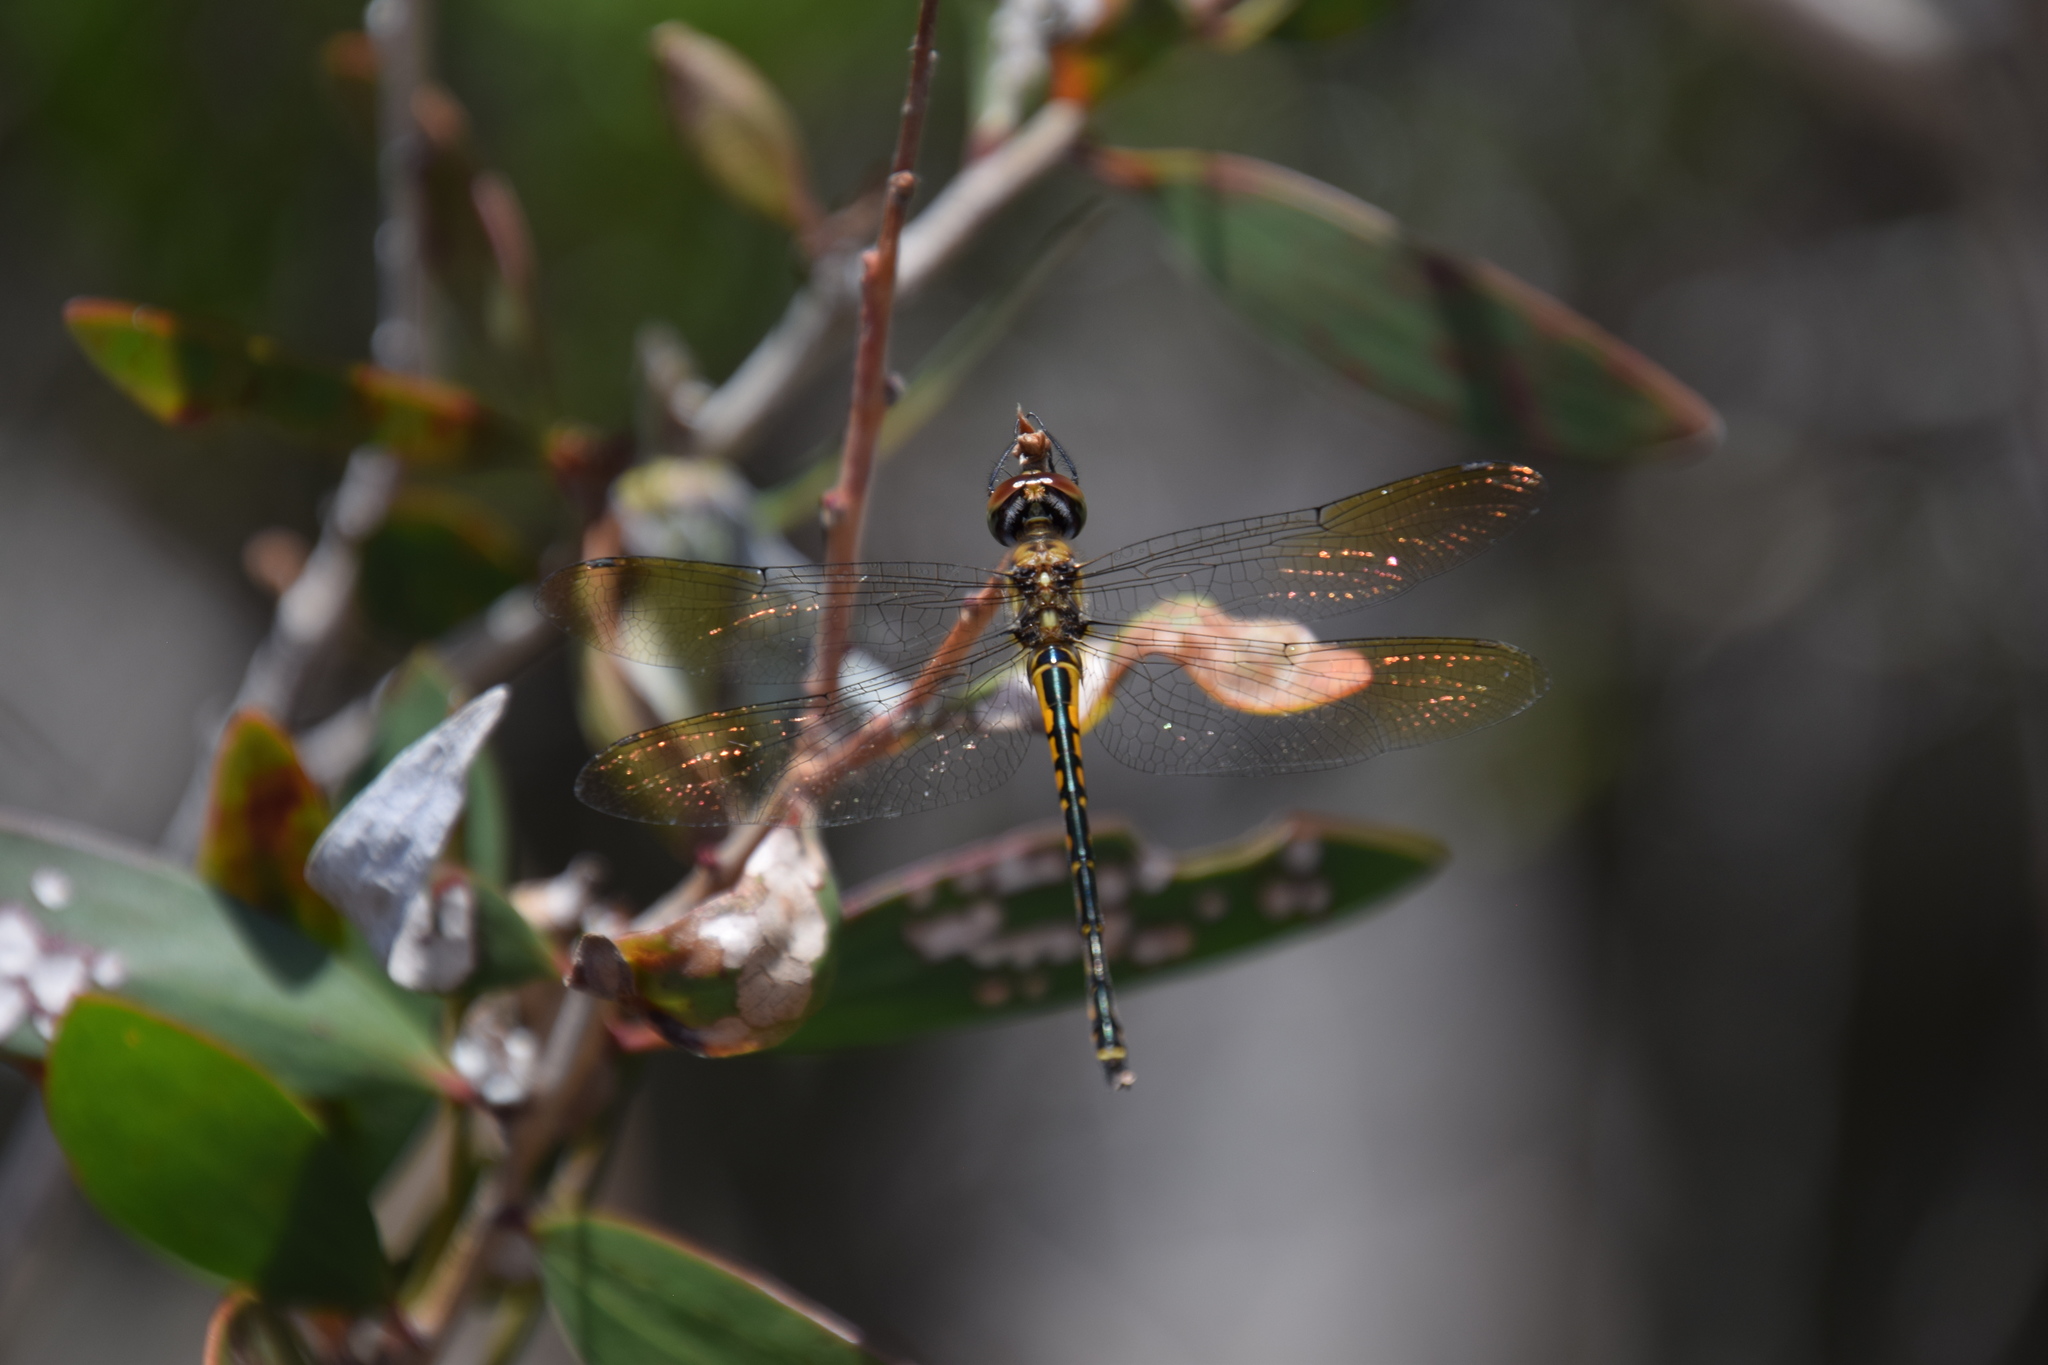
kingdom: Animalia
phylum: Arthropoda
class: Insecta
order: Odonata
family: Corduliidae
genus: Hemicordulia
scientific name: Hemicordulia australiae
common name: Sentry dragonfly
